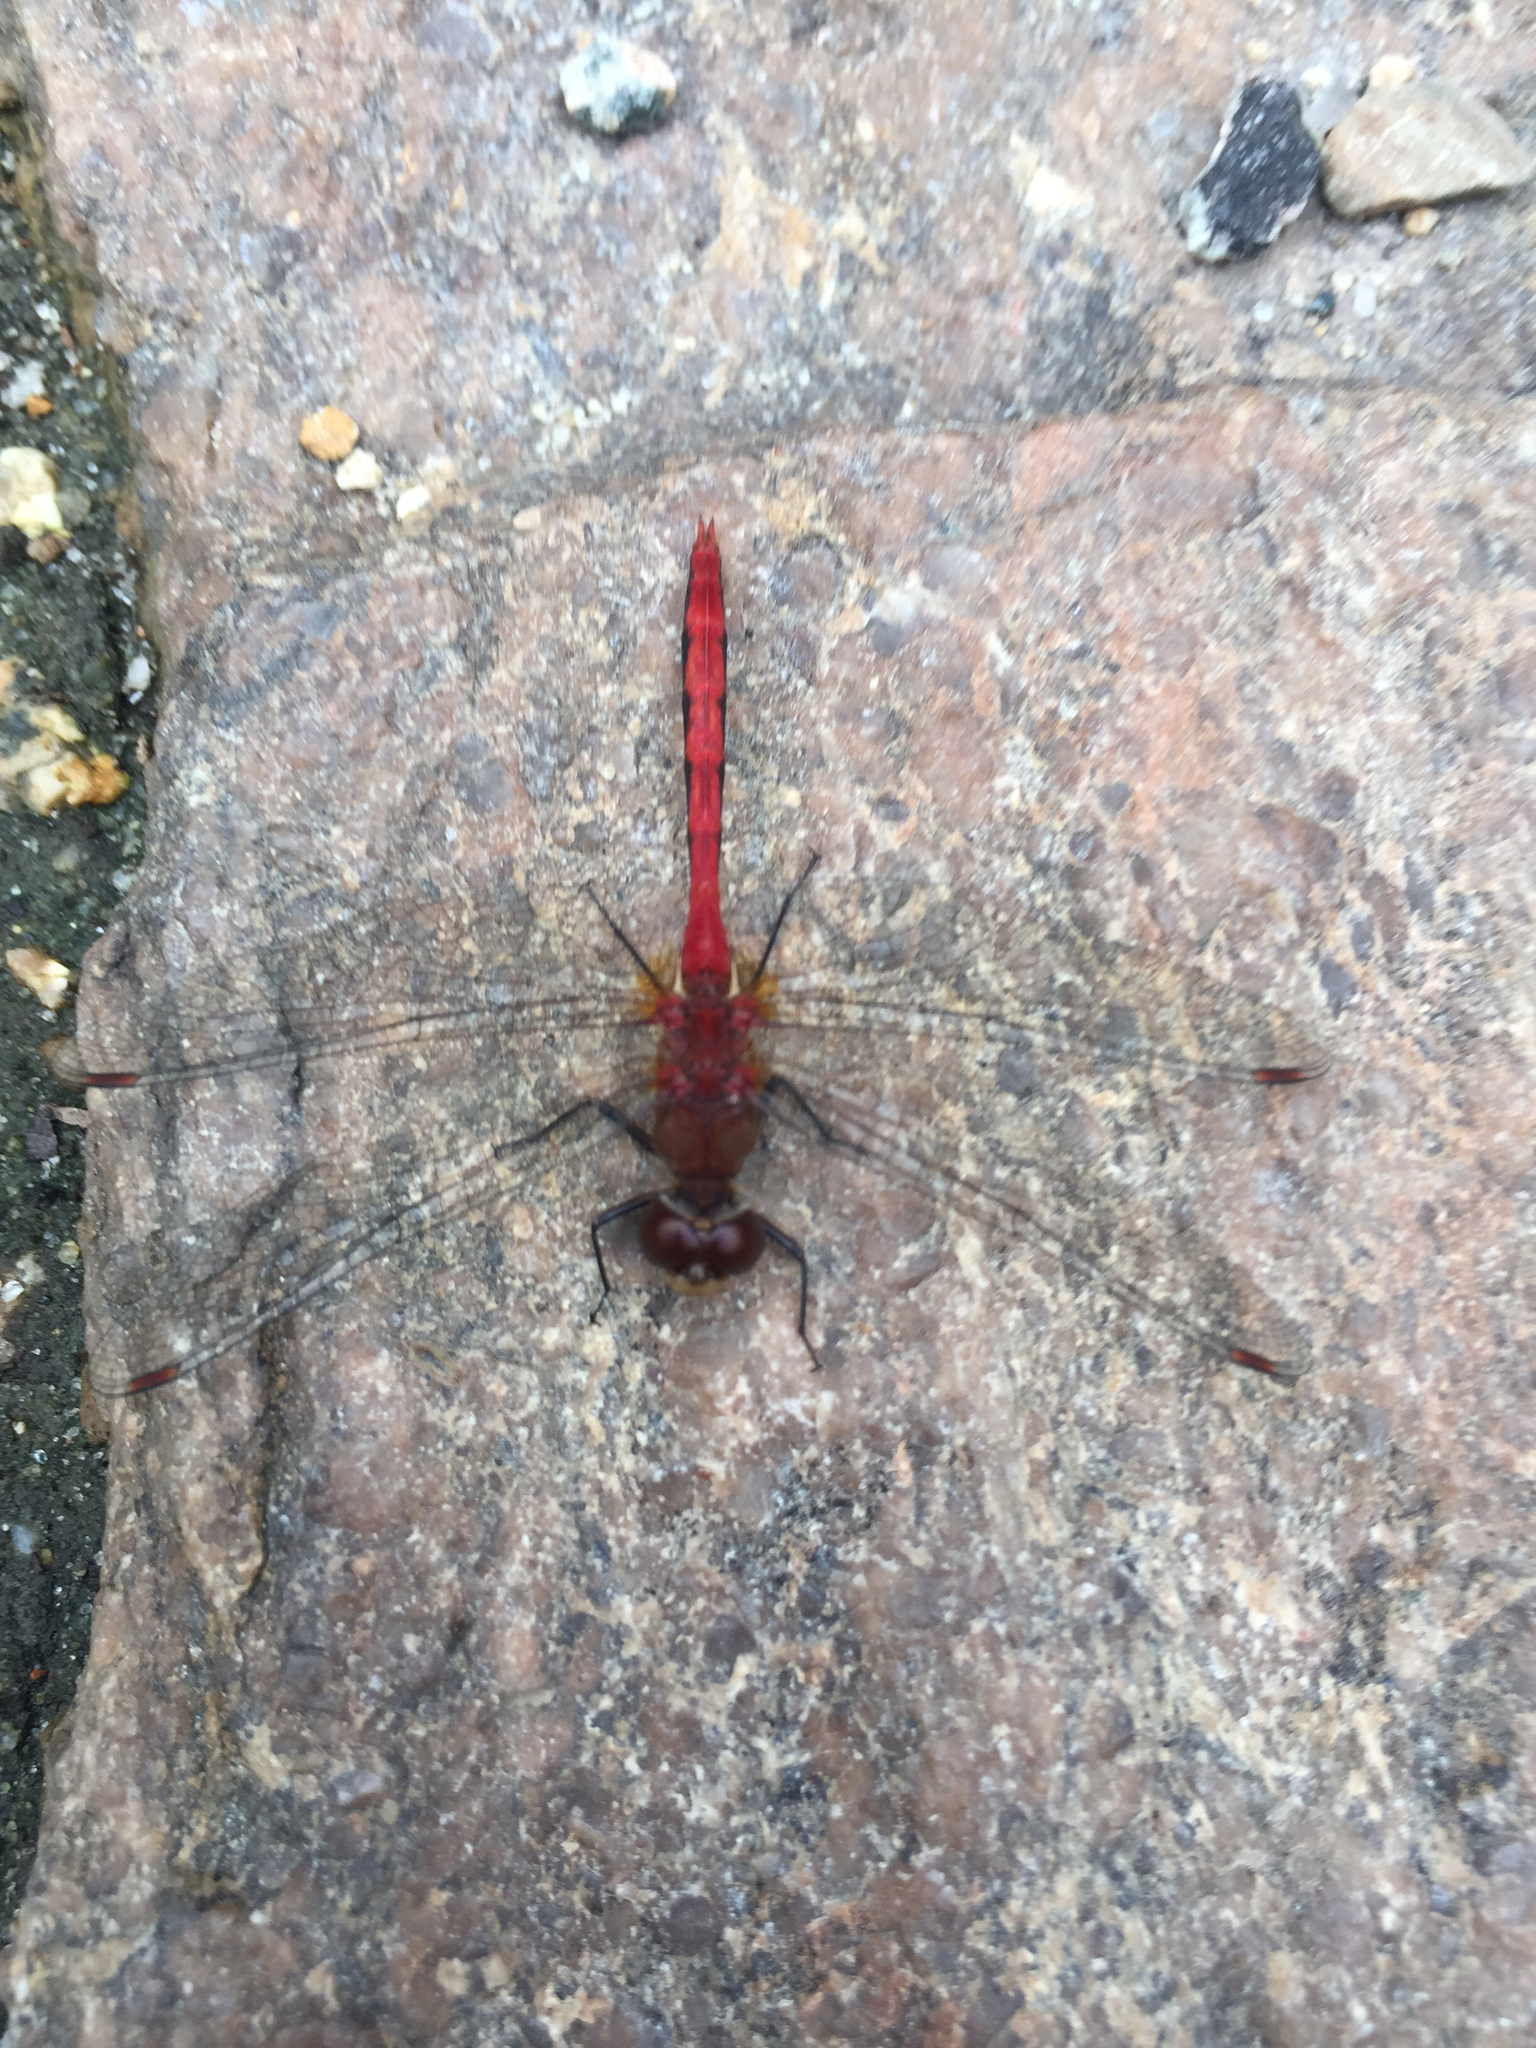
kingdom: Animalia
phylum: Arthropoda
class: Insecta
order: Odonata
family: Libellulidae
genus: Sympetrum
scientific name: Sympetrum vicinum
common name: Autumn meadowhawk
